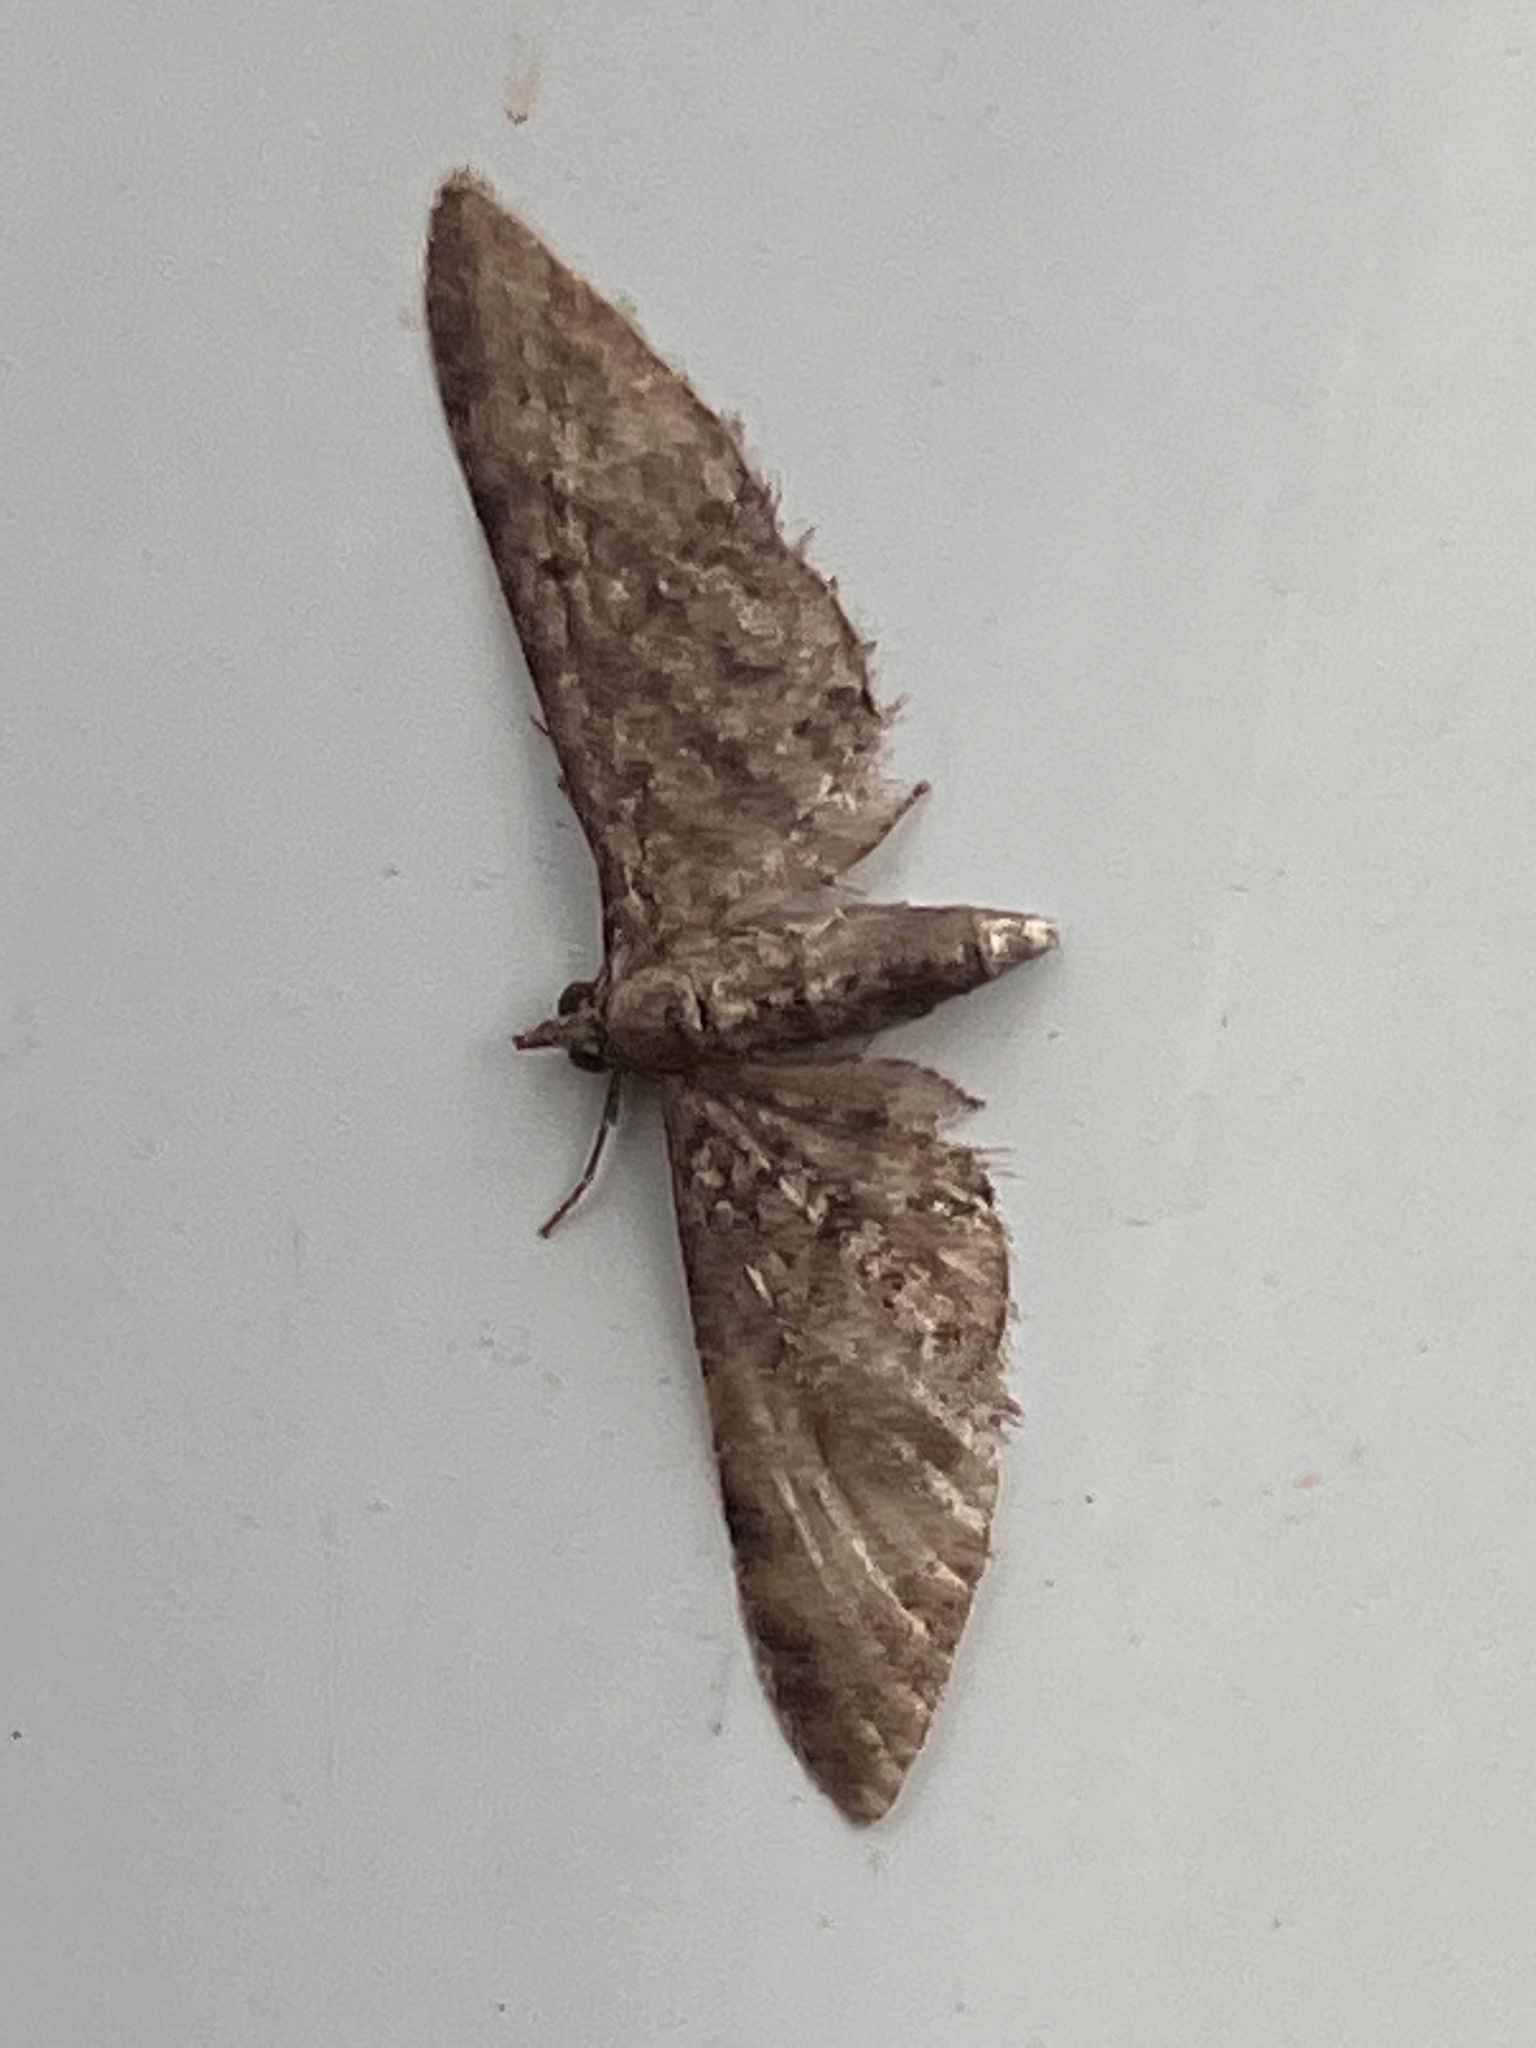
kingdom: Animalia
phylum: Arthropoda
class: Insecta
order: Lepidoptera
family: Geometridae
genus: Eupithecia
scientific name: Eupithecia miserulata
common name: Common eupithecia
